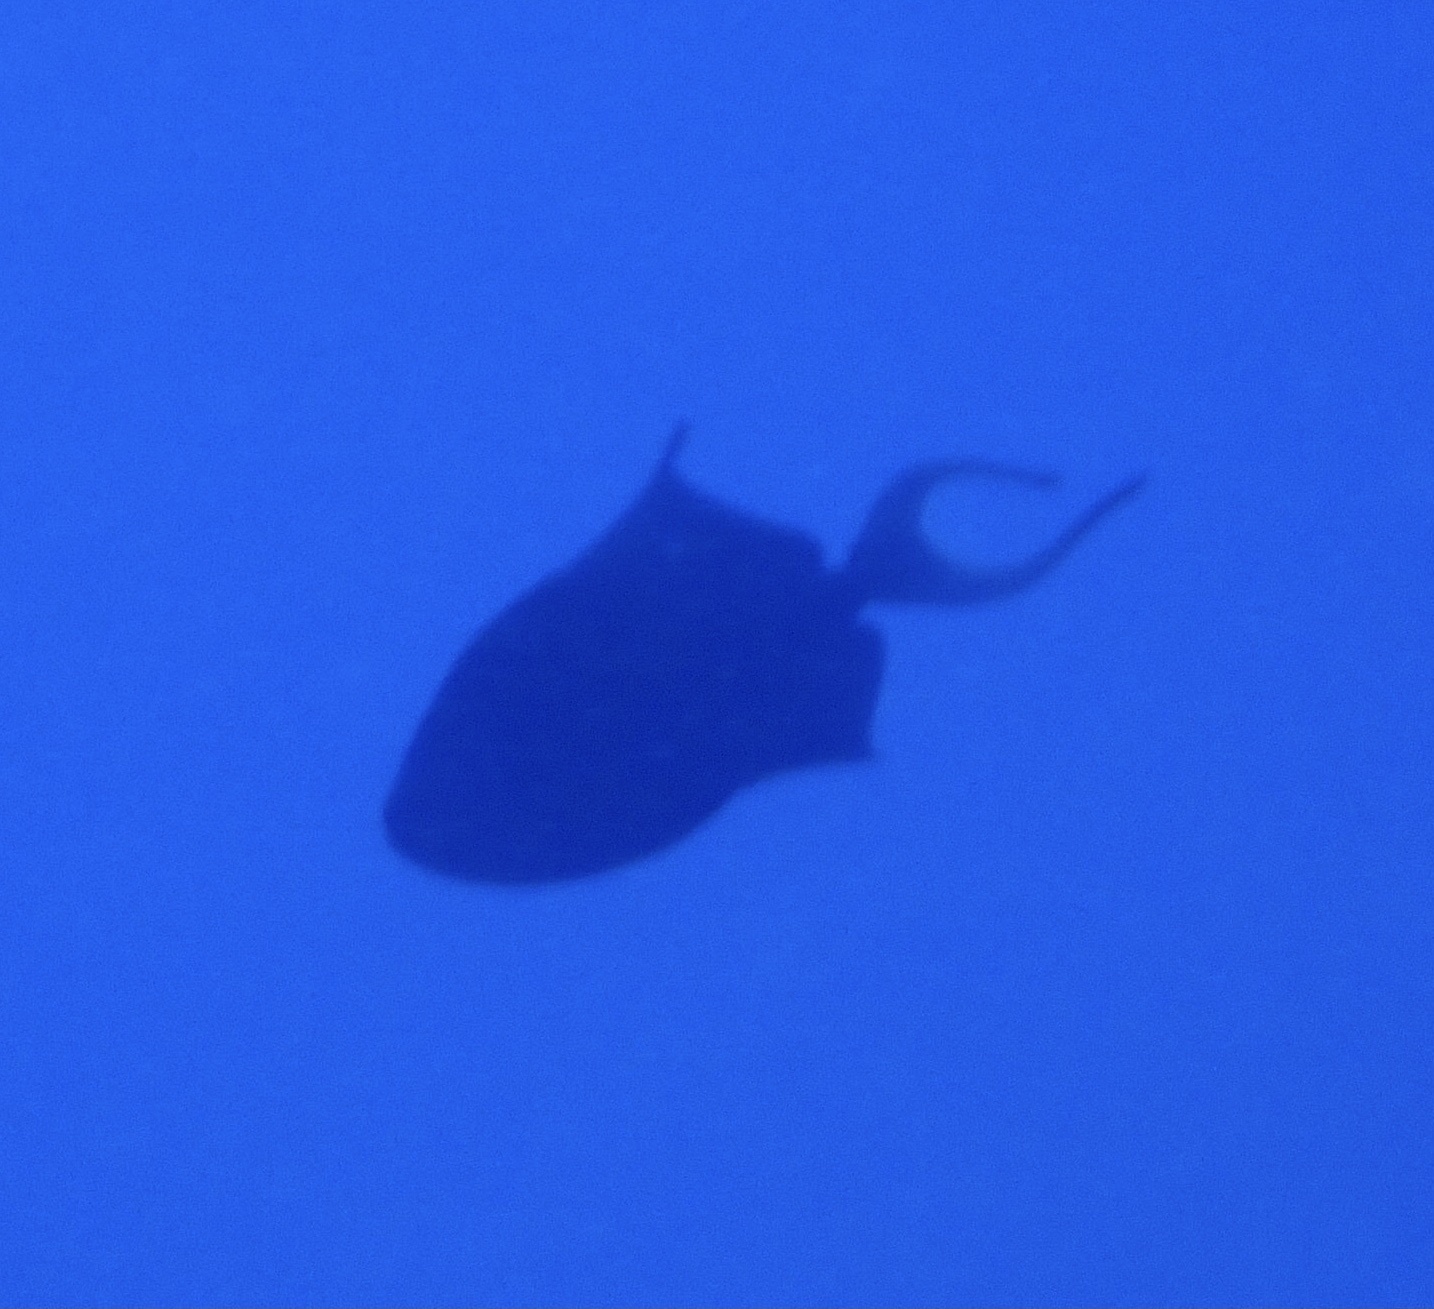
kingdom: Animalia
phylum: Chordata
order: Tetraodontiformes
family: Balistidae
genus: Odonus
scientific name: Odonus niger
